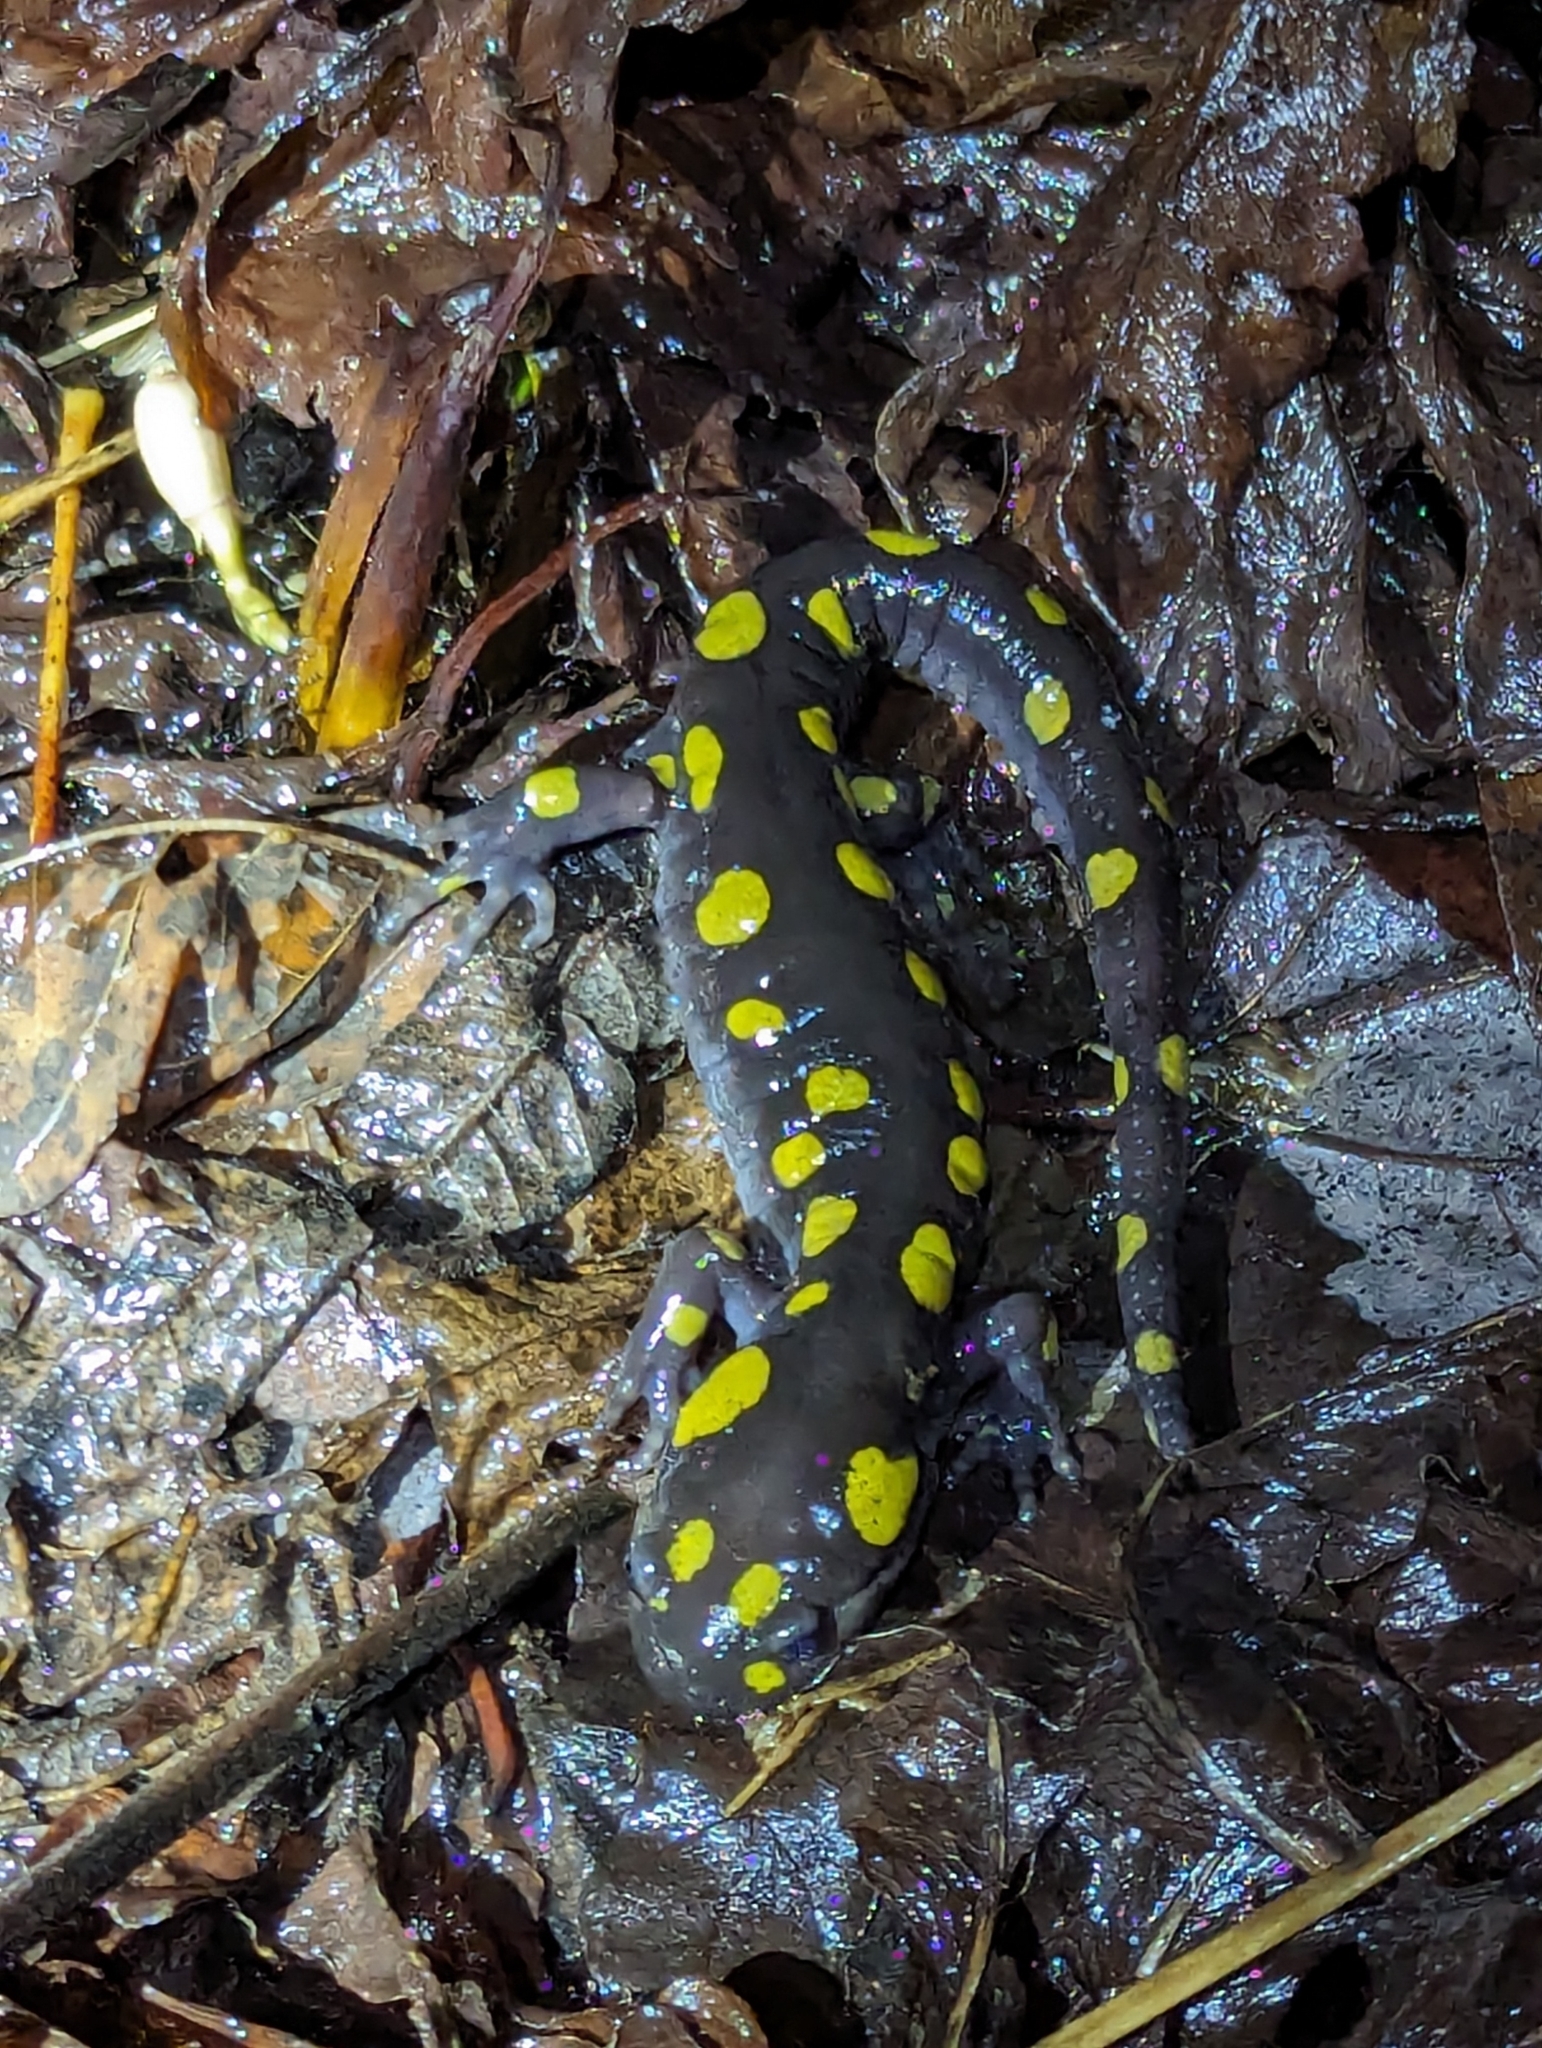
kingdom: Animalia
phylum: Chordata
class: Amphibia
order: Caudata
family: Ambystomatidae
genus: Ambystoma
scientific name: Ambystoma maculatum
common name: Spotted salamander
